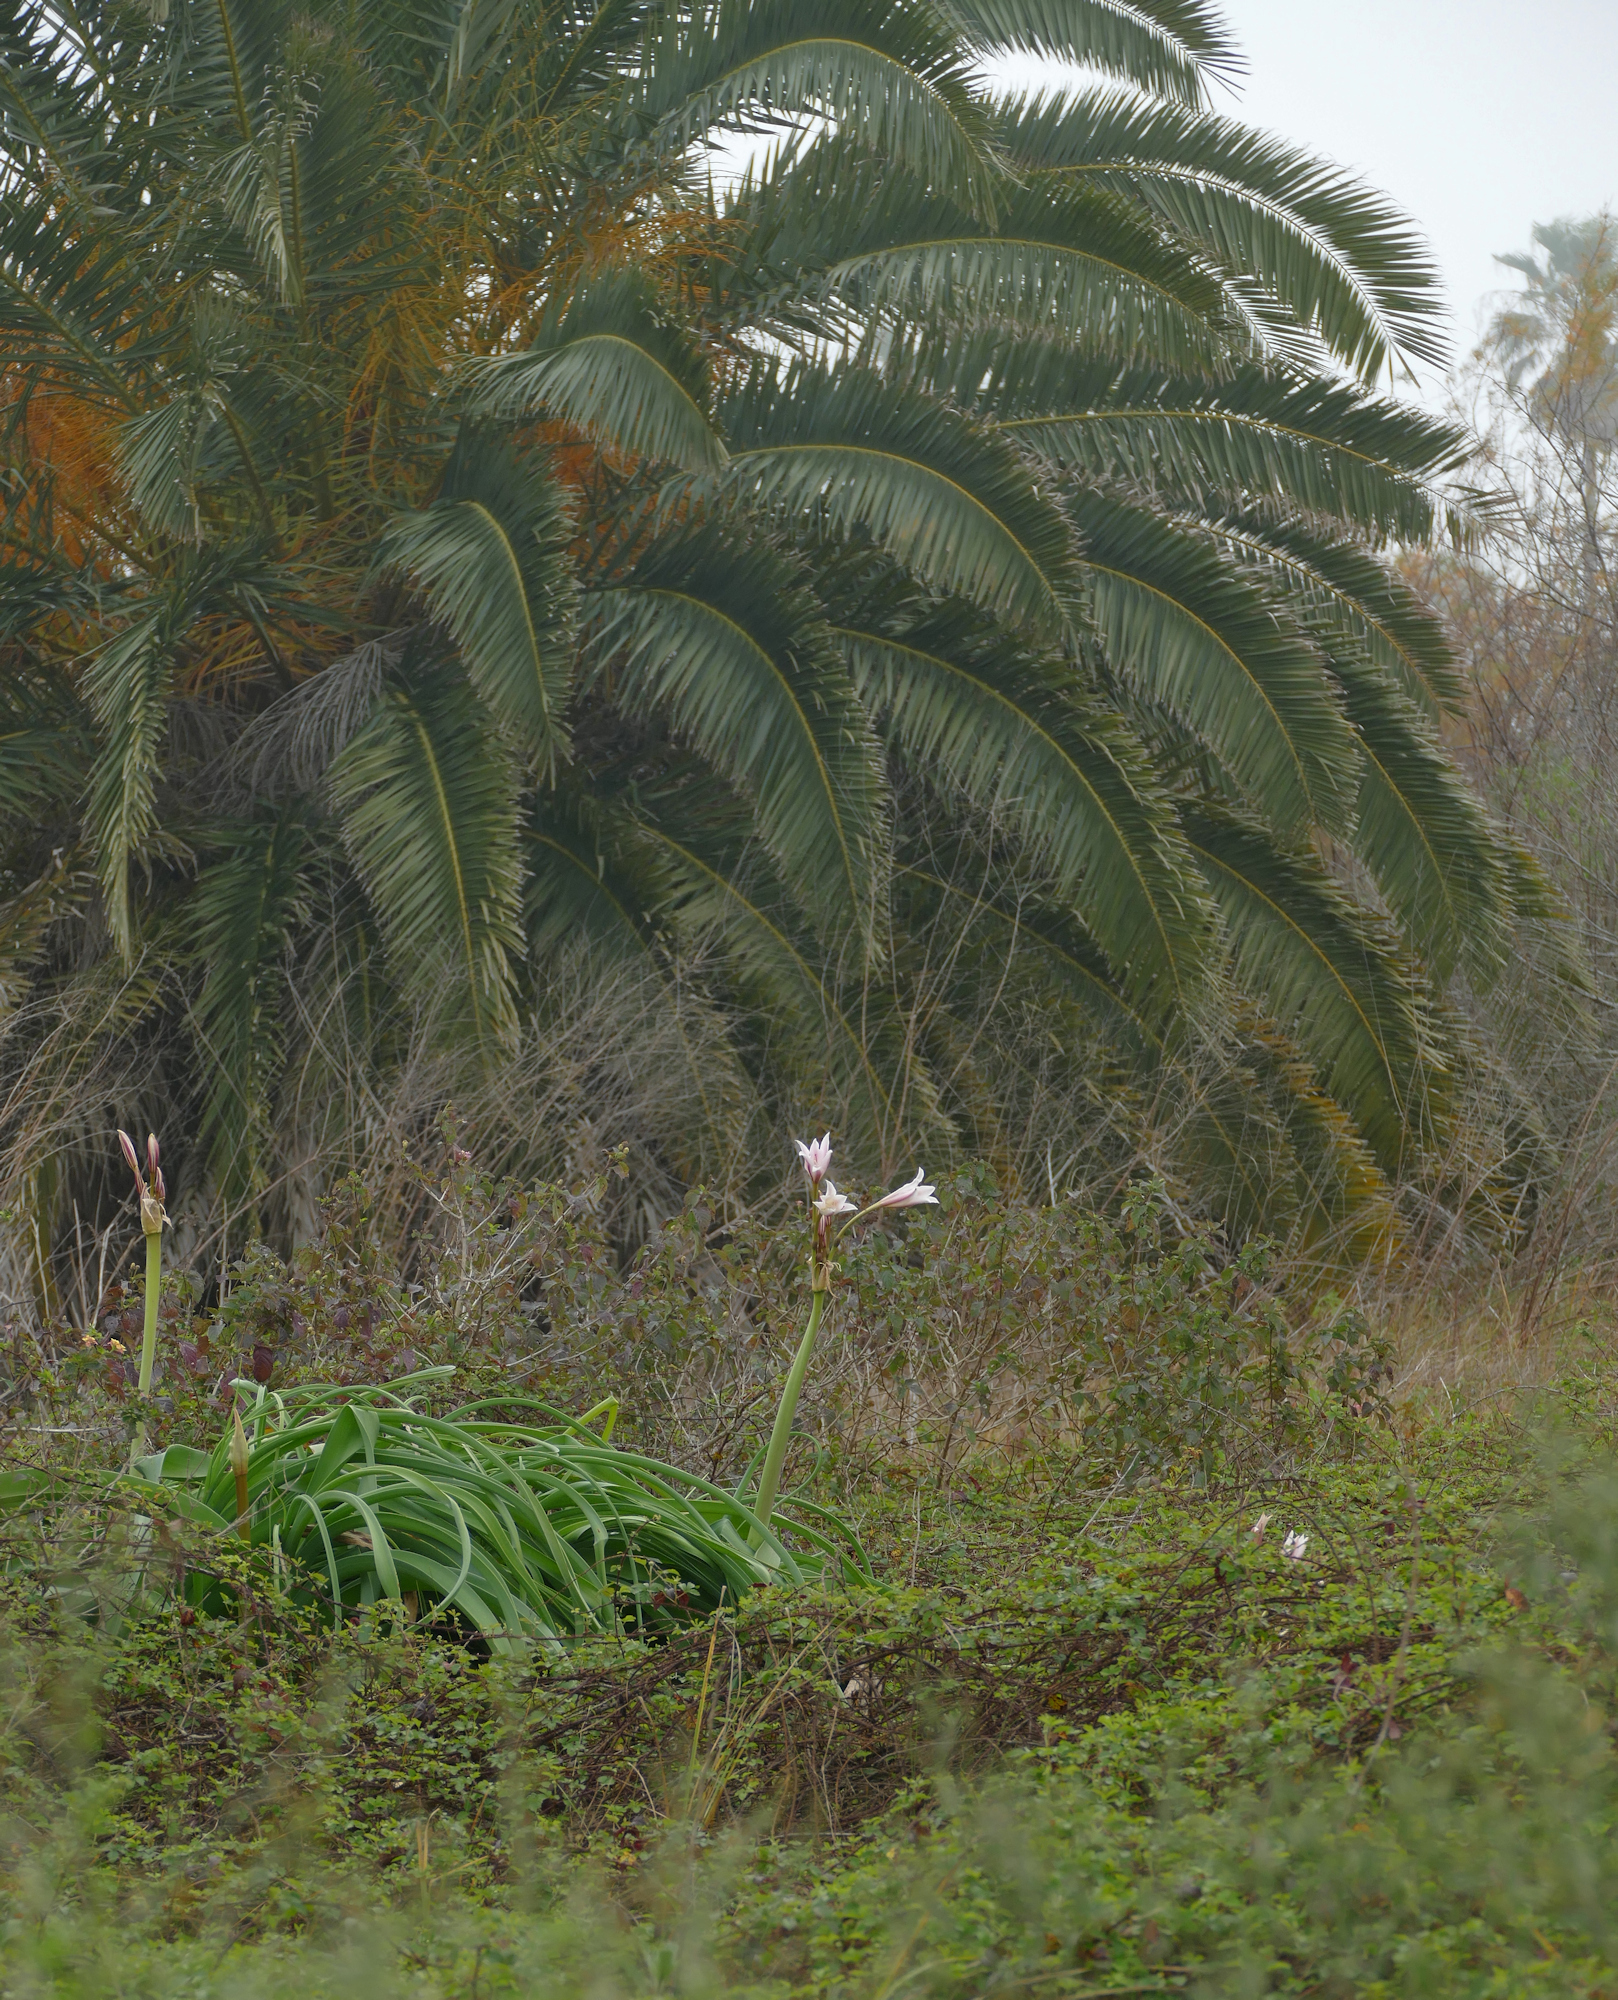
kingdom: Plantae
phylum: Tracheophyta
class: Liliopsida
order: Arecales
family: Arecaceae
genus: Phoenix
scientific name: Phoenix canariensis
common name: Canary island date palm
